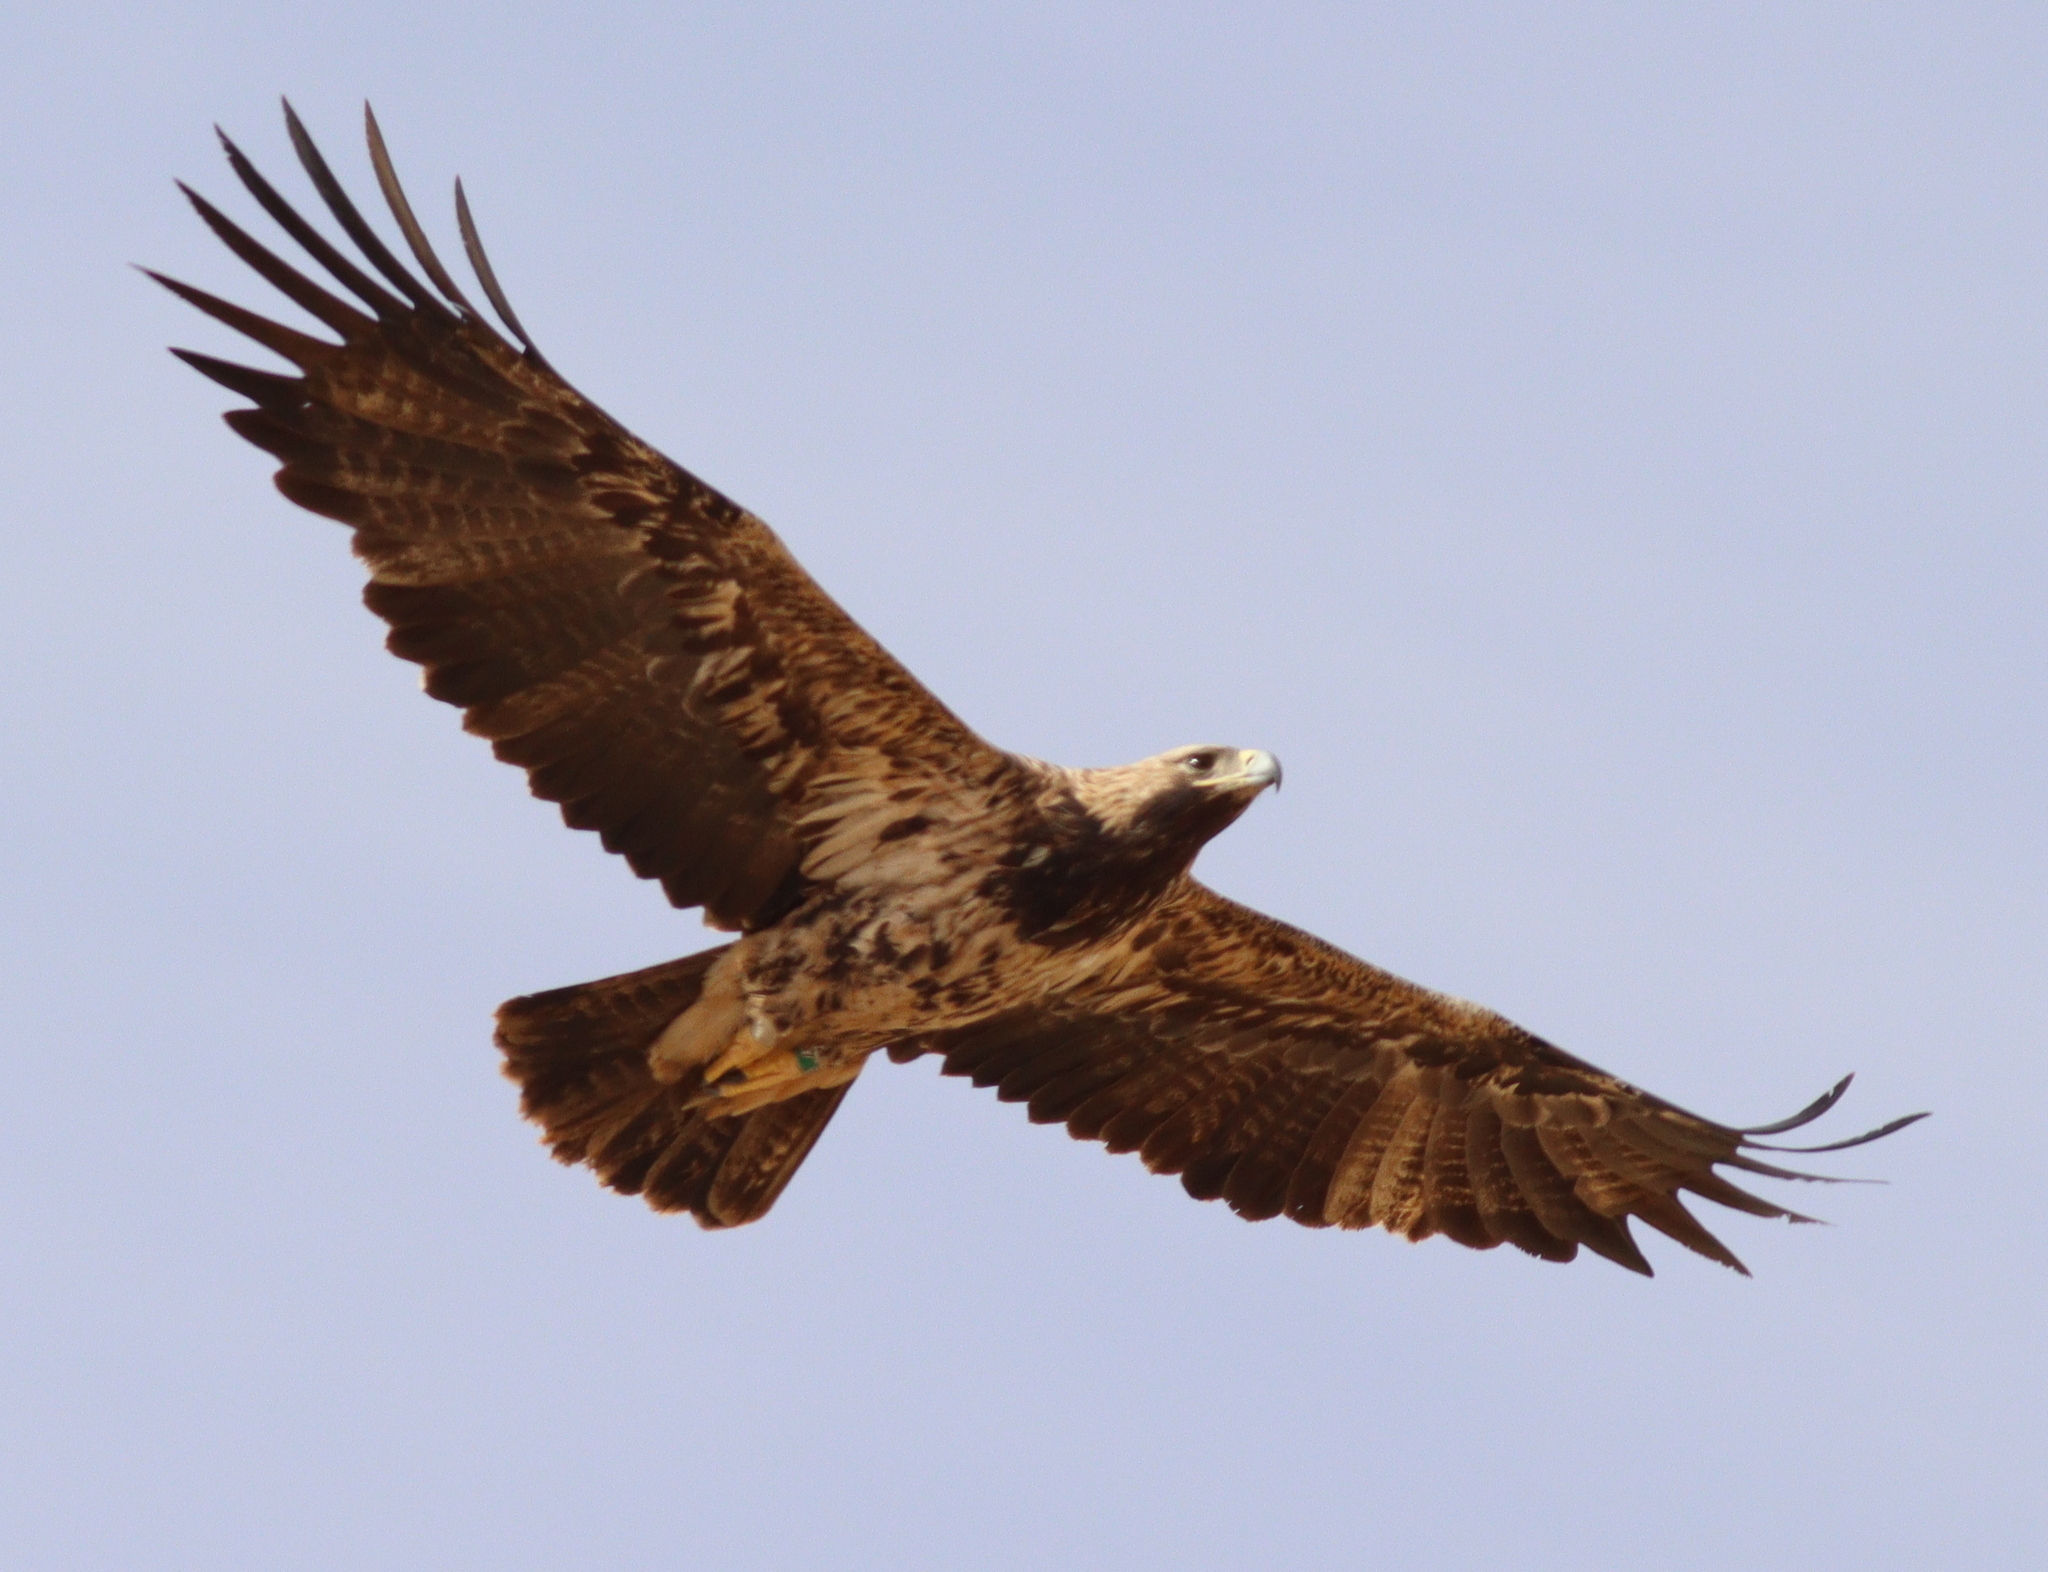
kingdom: Animalia
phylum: Chordata
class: Aves
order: Accipitriformes
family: Accipitridae
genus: Aquila
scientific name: Aquila heliaca
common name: Eastern imperial eagle
